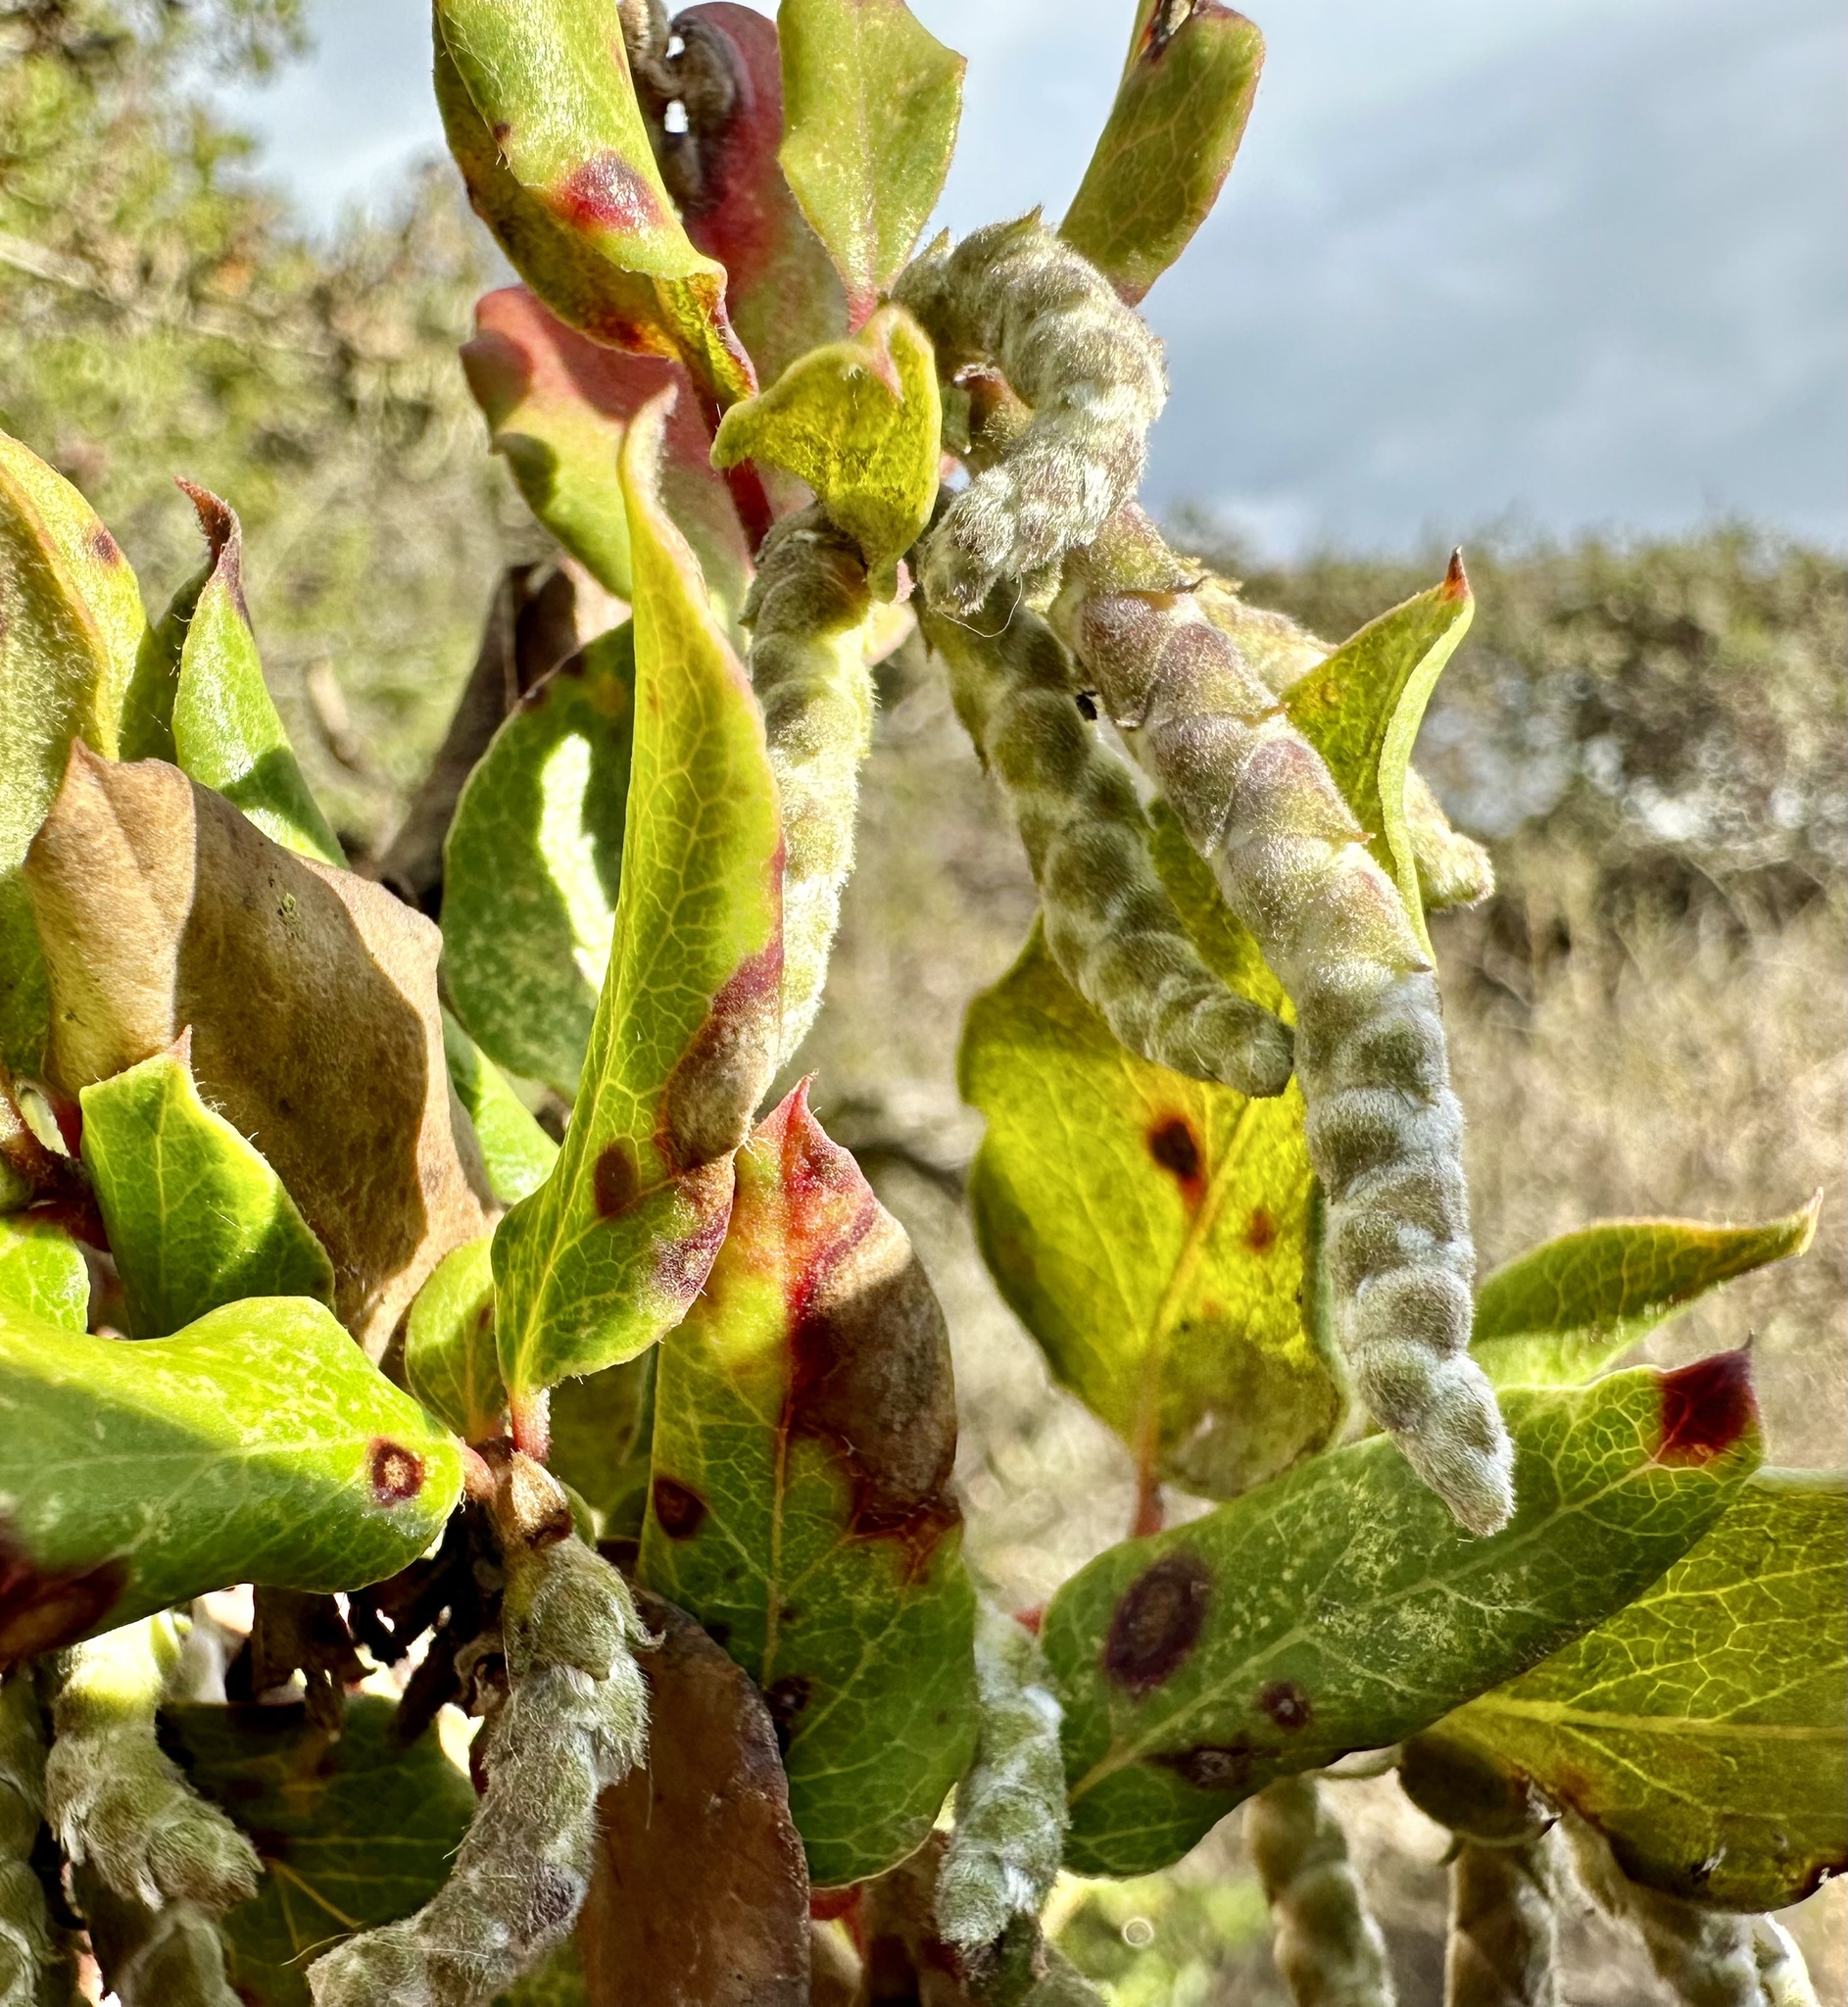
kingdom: Plantae
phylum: Tracheophyta
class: Magnoliopsida
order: Garryales
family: Garryaceae
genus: Garrya
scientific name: Garrya elliptica
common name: Silk-tassel
